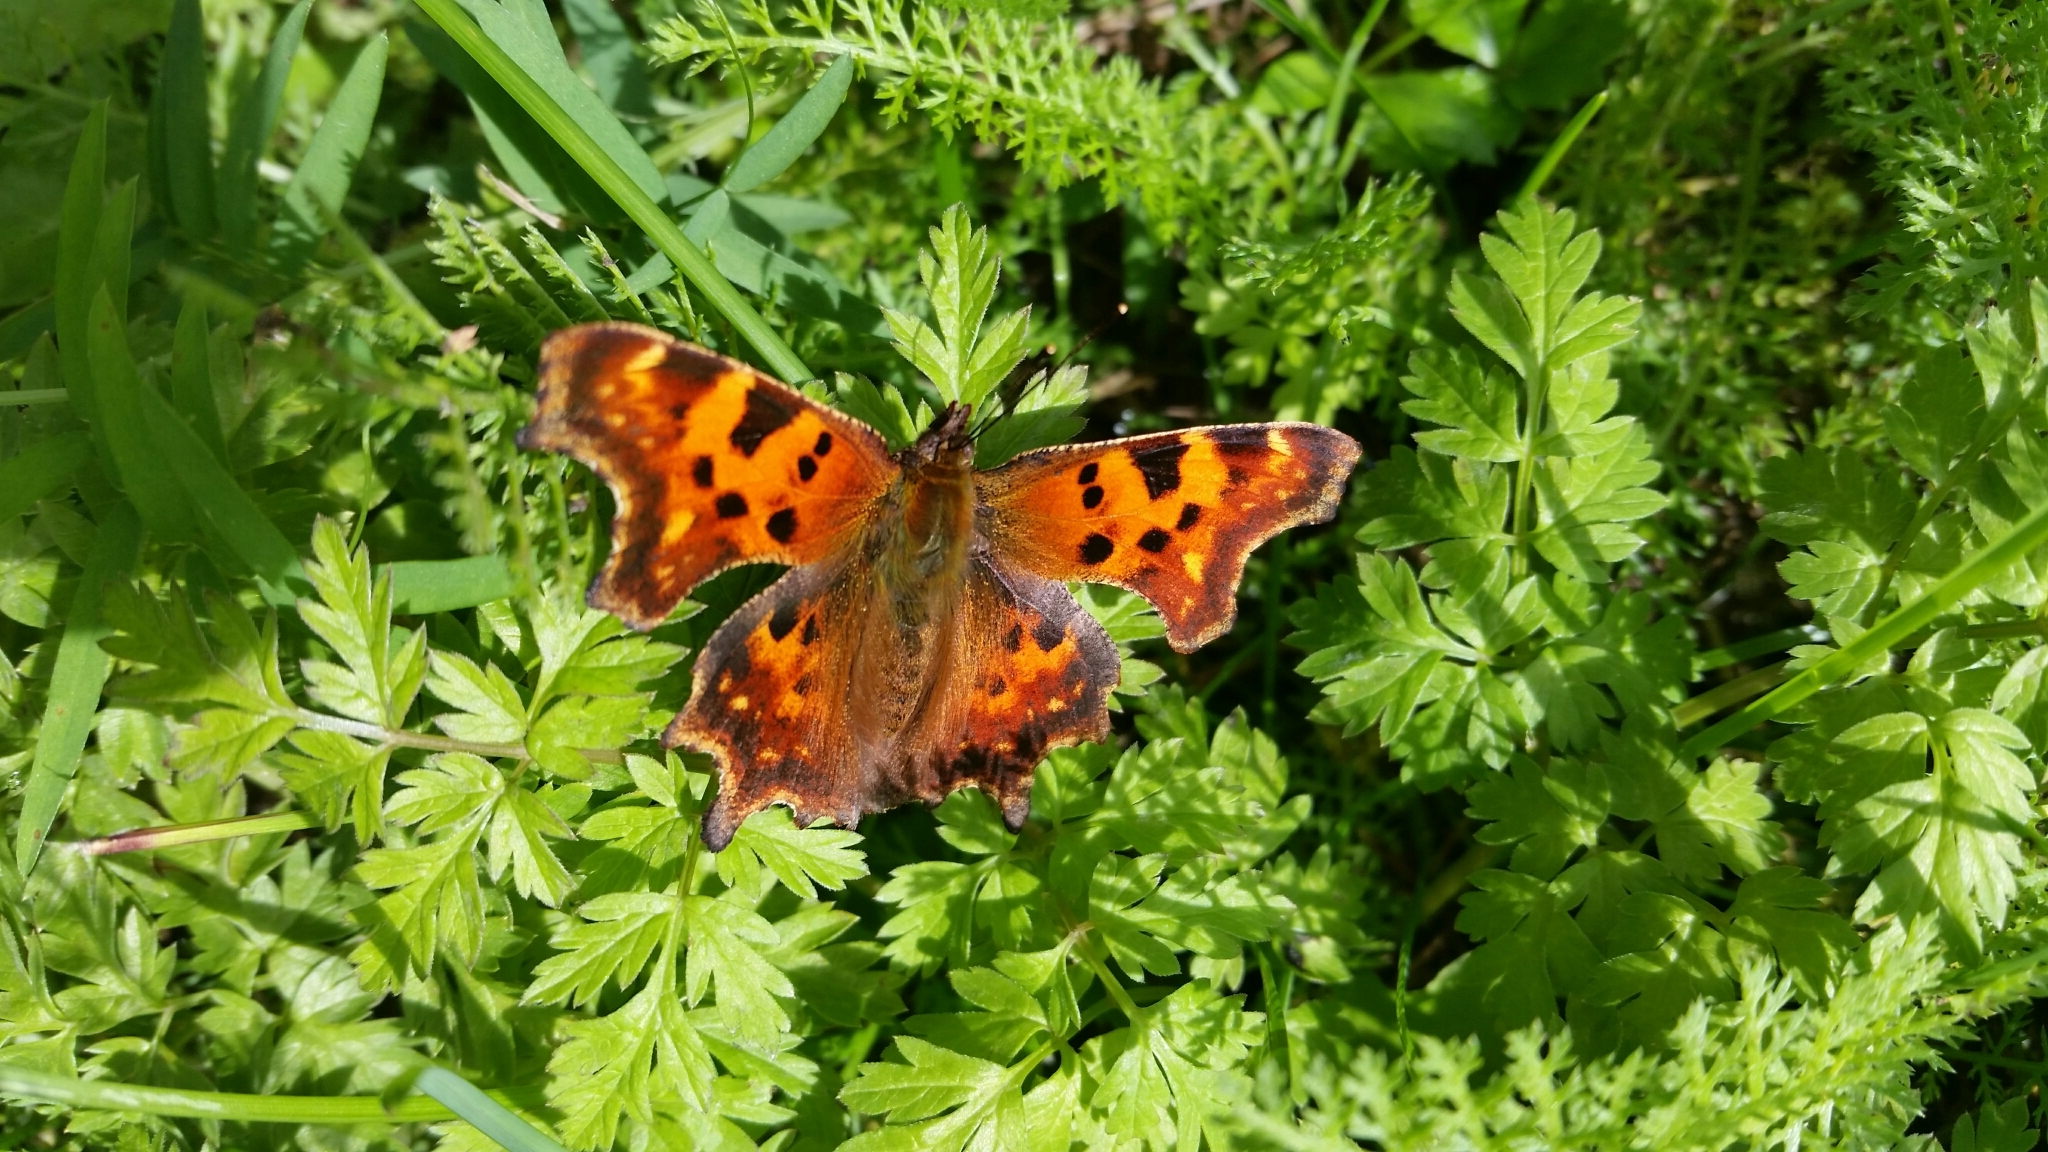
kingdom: Animalia
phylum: Arthropoda
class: Insecta
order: Lepidoptera
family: Nymphalidae
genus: Polygonia
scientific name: Polygonia c-album
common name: Comma
